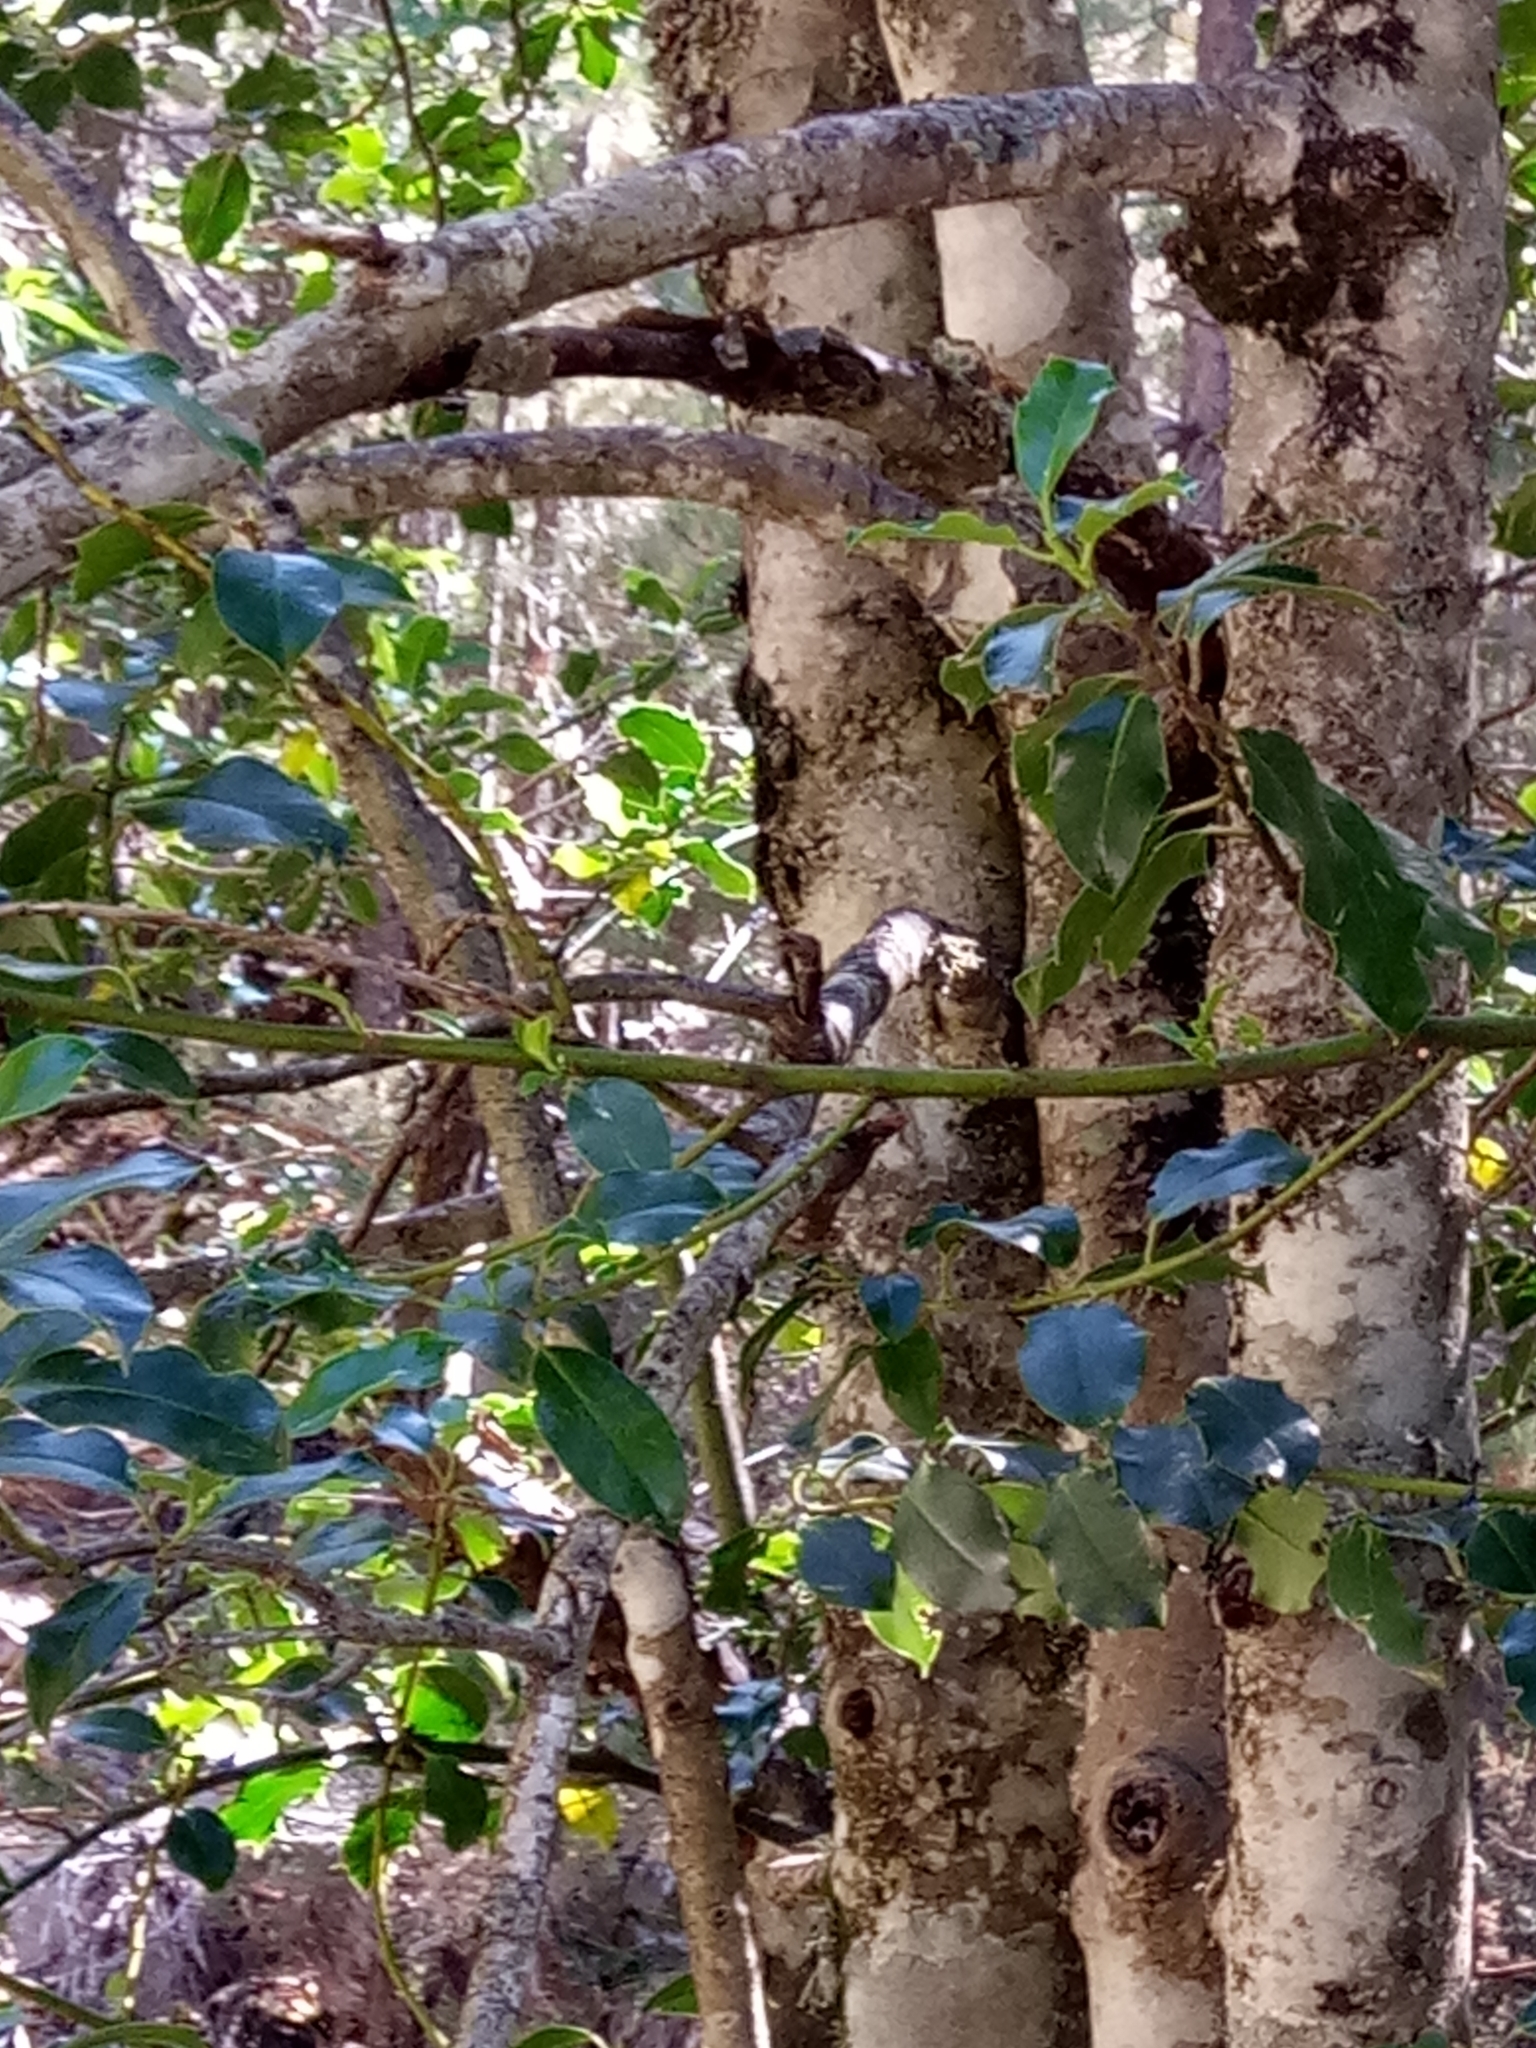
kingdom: Plantae
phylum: Tracheophyta
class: Magnoliopsida
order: Aquifoliales
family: Aquifoliaceae
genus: Ilex
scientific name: Ilex aquifolium
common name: English holly
